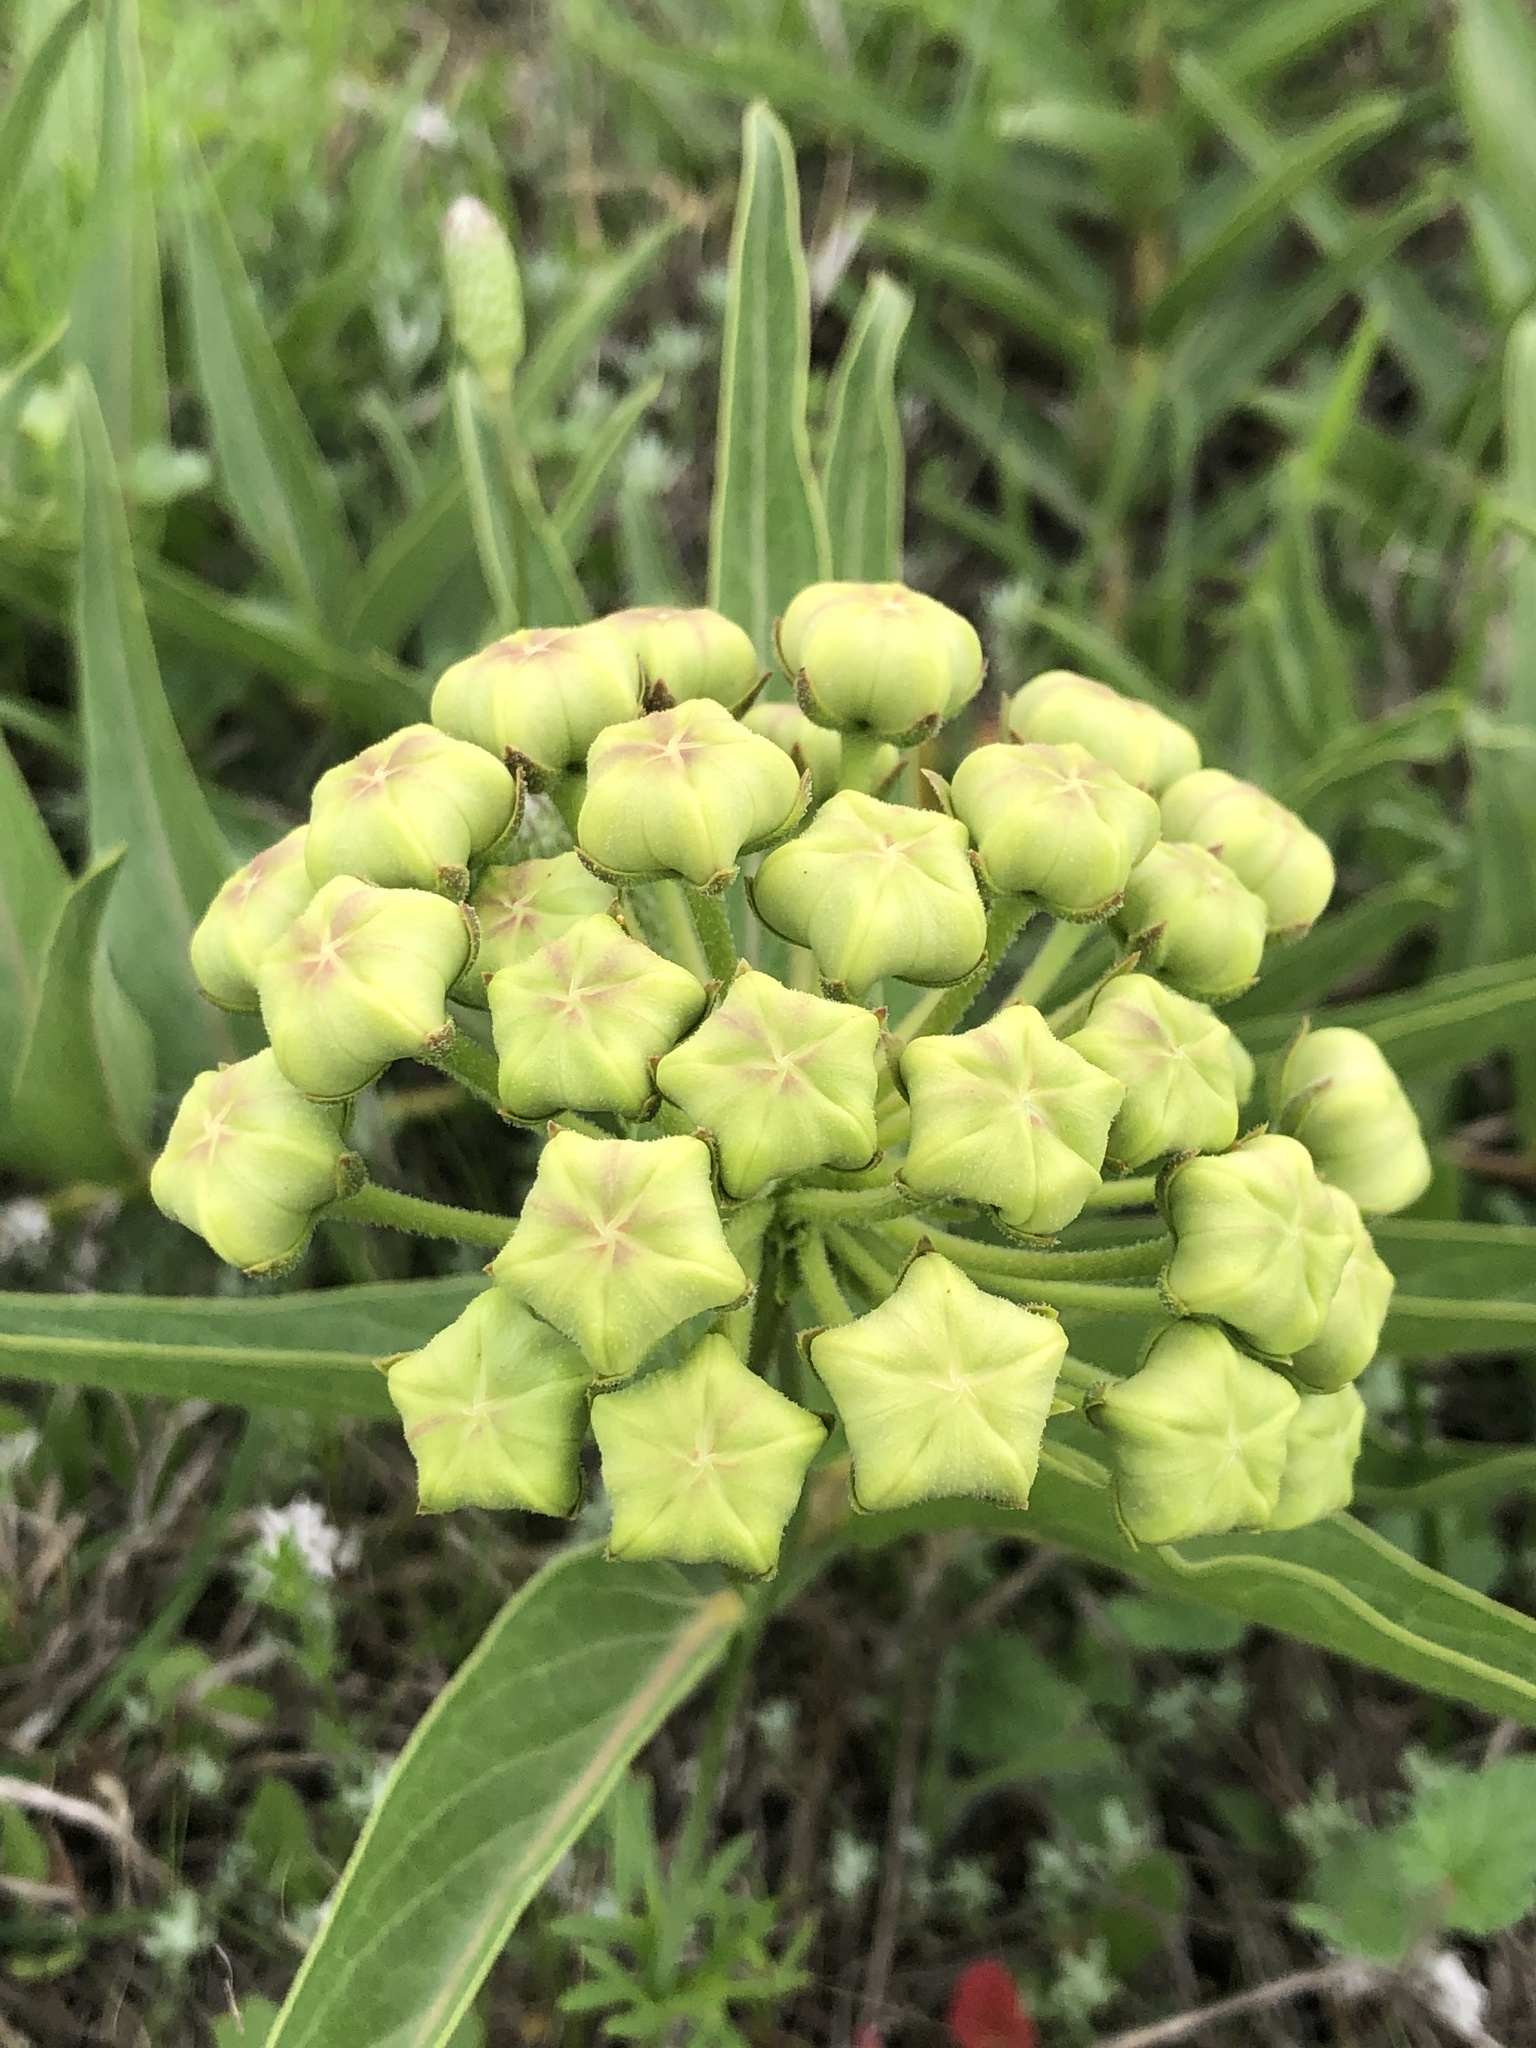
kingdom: Plantae
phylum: Tracheophyta
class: Magnoliopsida
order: Gentianales
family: Apocynaceae
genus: Asclepias
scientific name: Asclepias asperula
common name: Antelope horns
